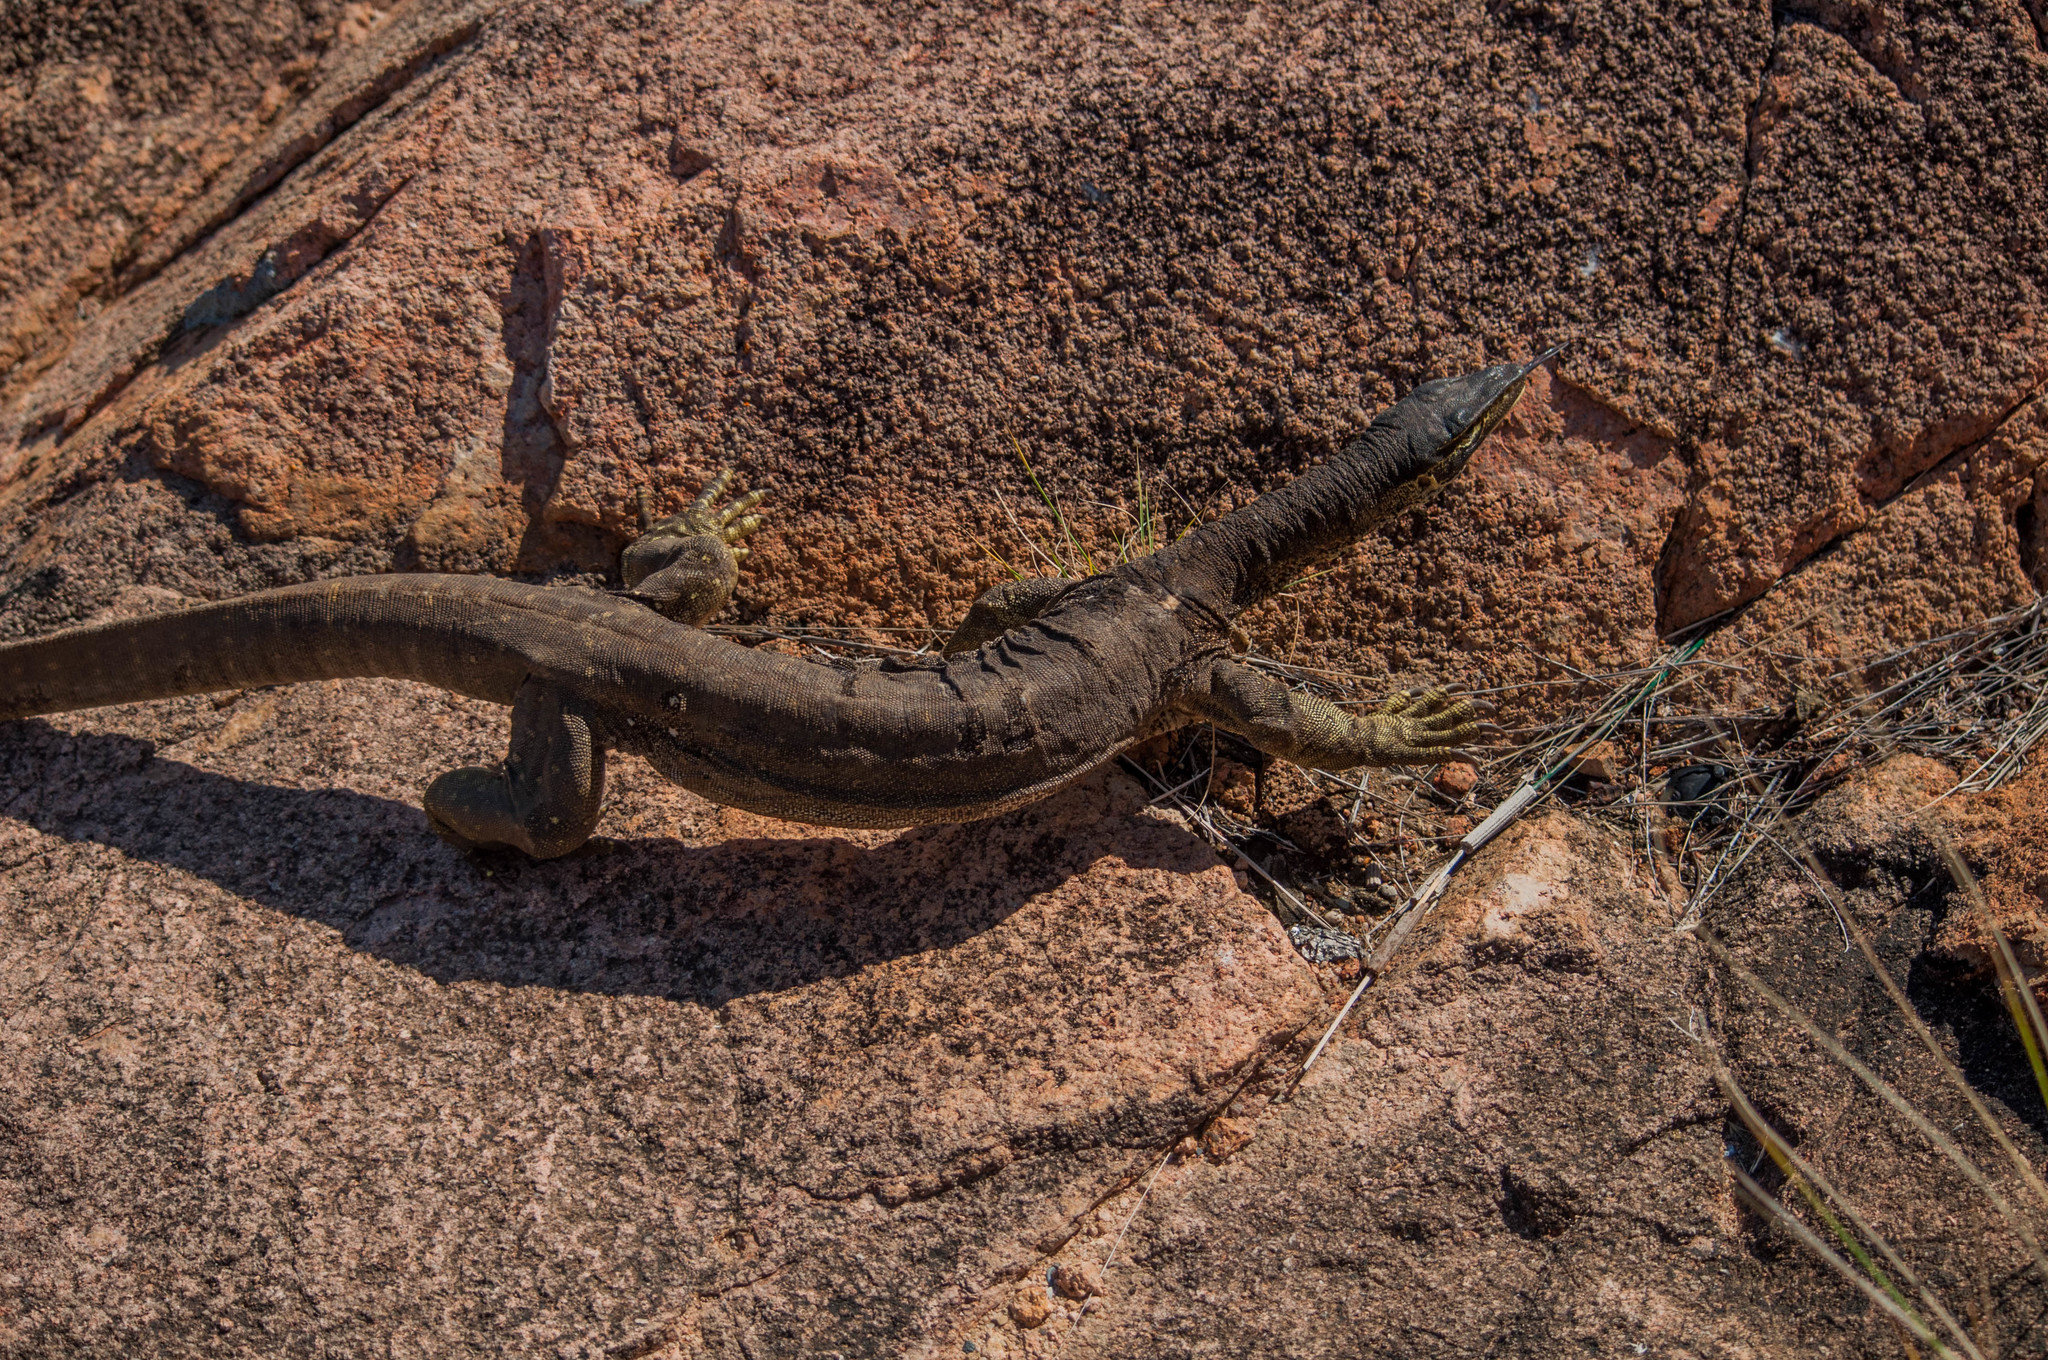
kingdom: Animalia
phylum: Chordata
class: Squamata
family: Varanidae
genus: Varanus
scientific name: Varanus panoptes
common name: Yellow-spotted monitor
